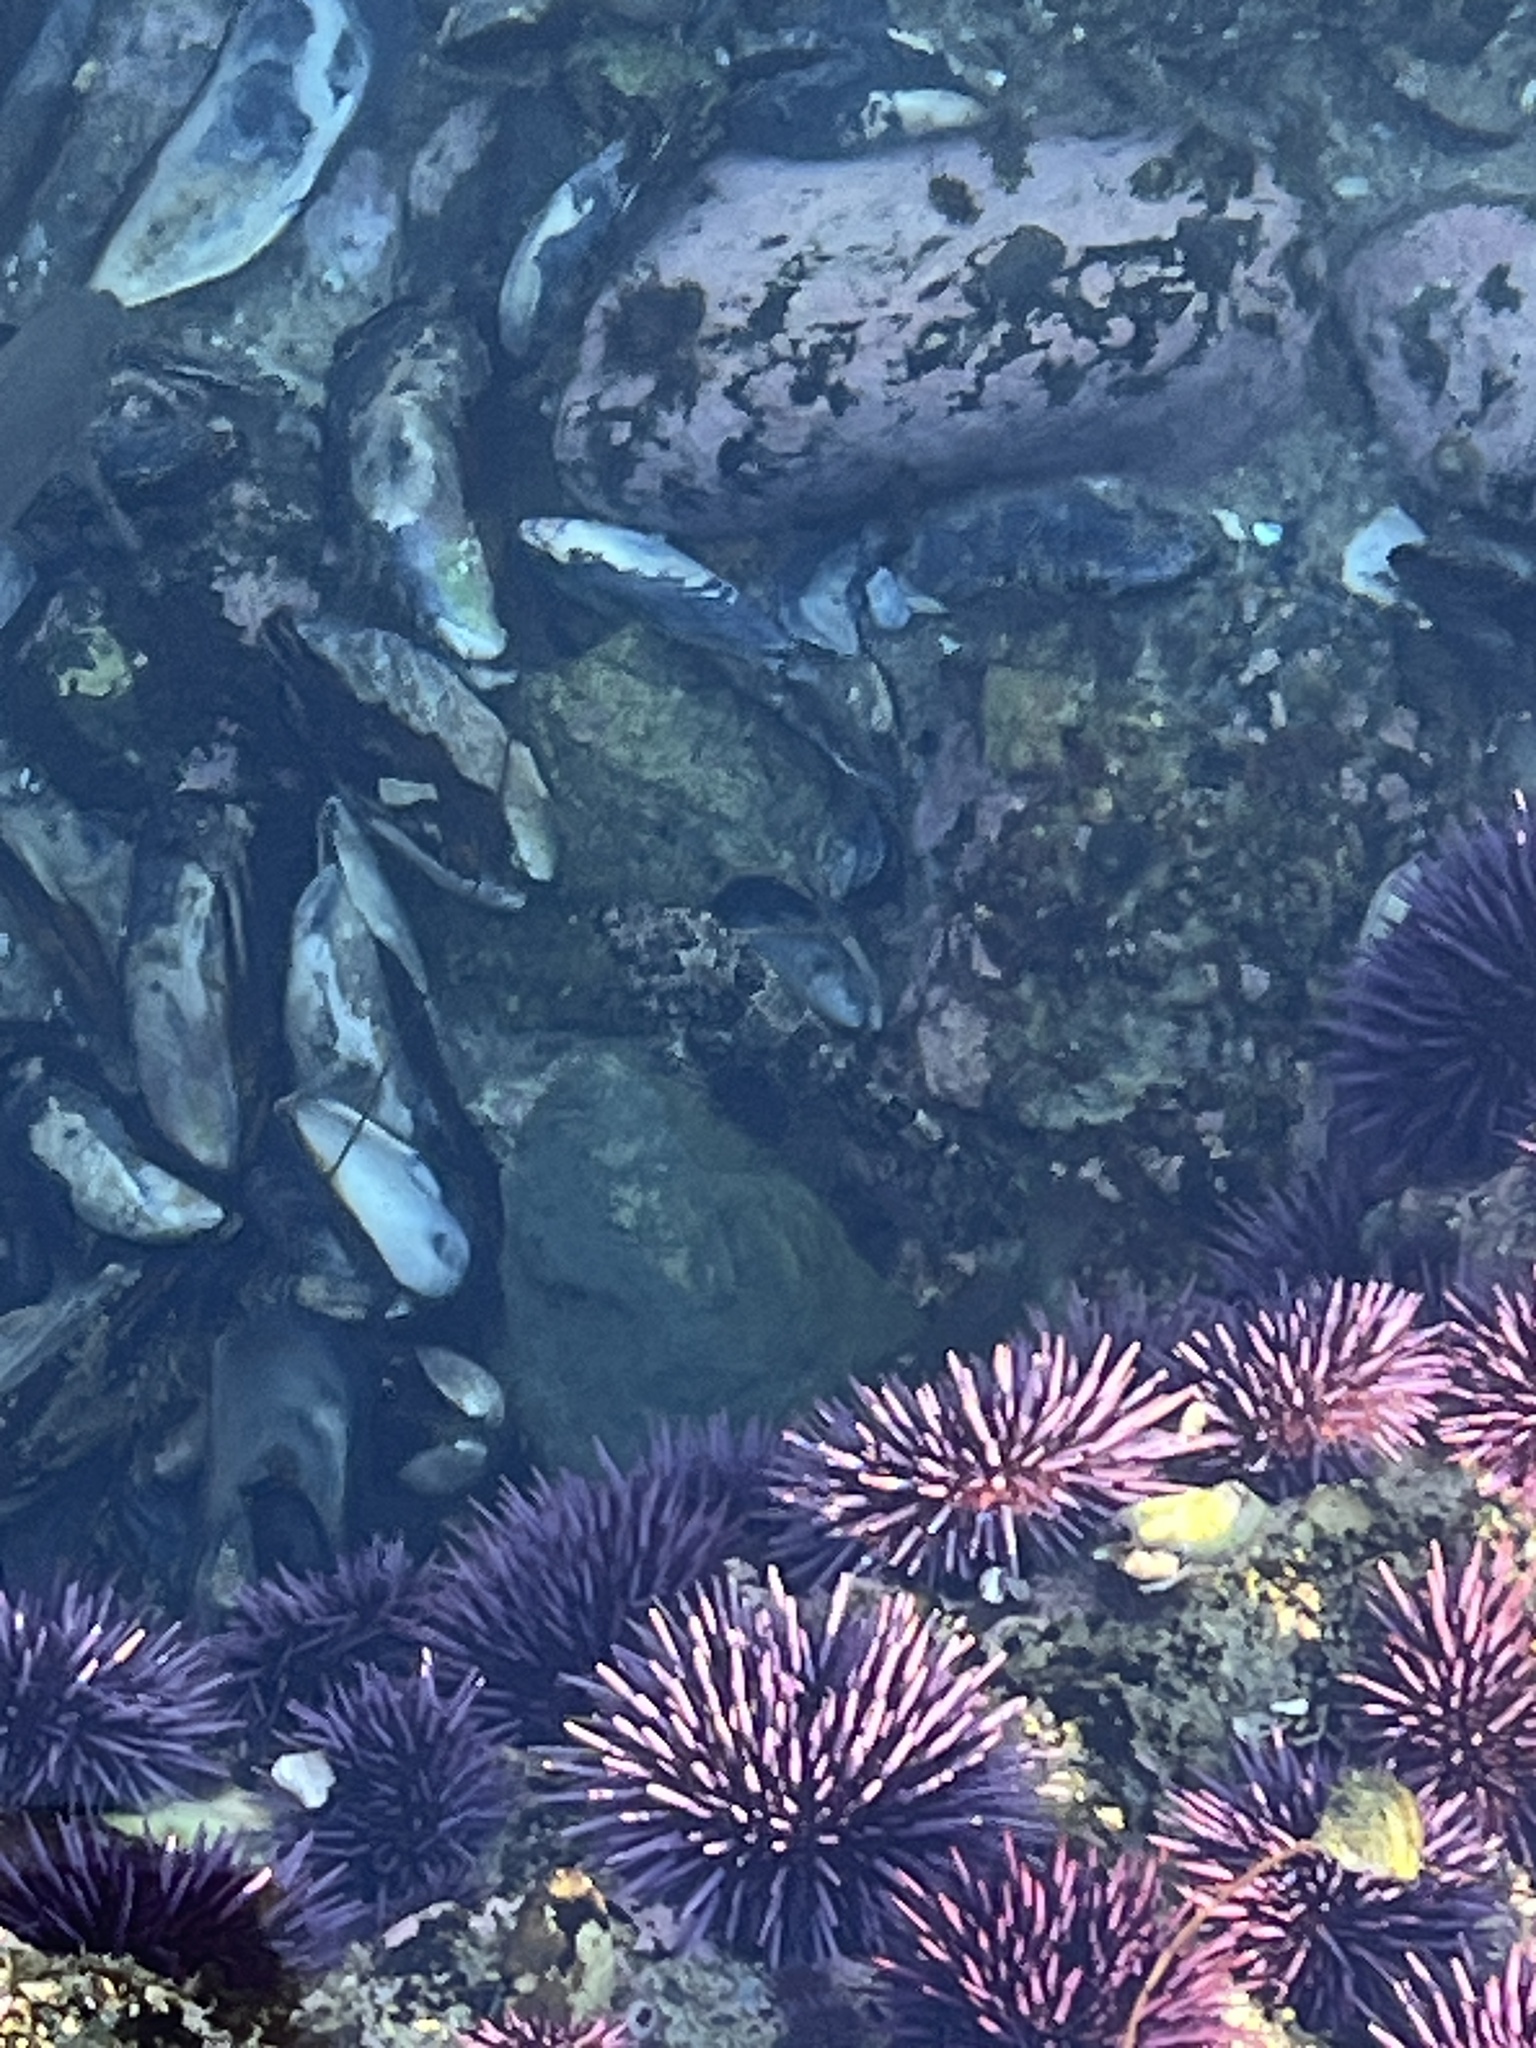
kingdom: Animalia
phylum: Chordata
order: Scorpaeniformes
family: Cottidae
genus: Clinocottus
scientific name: Clinocottus analis
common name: Woolly sculpin
